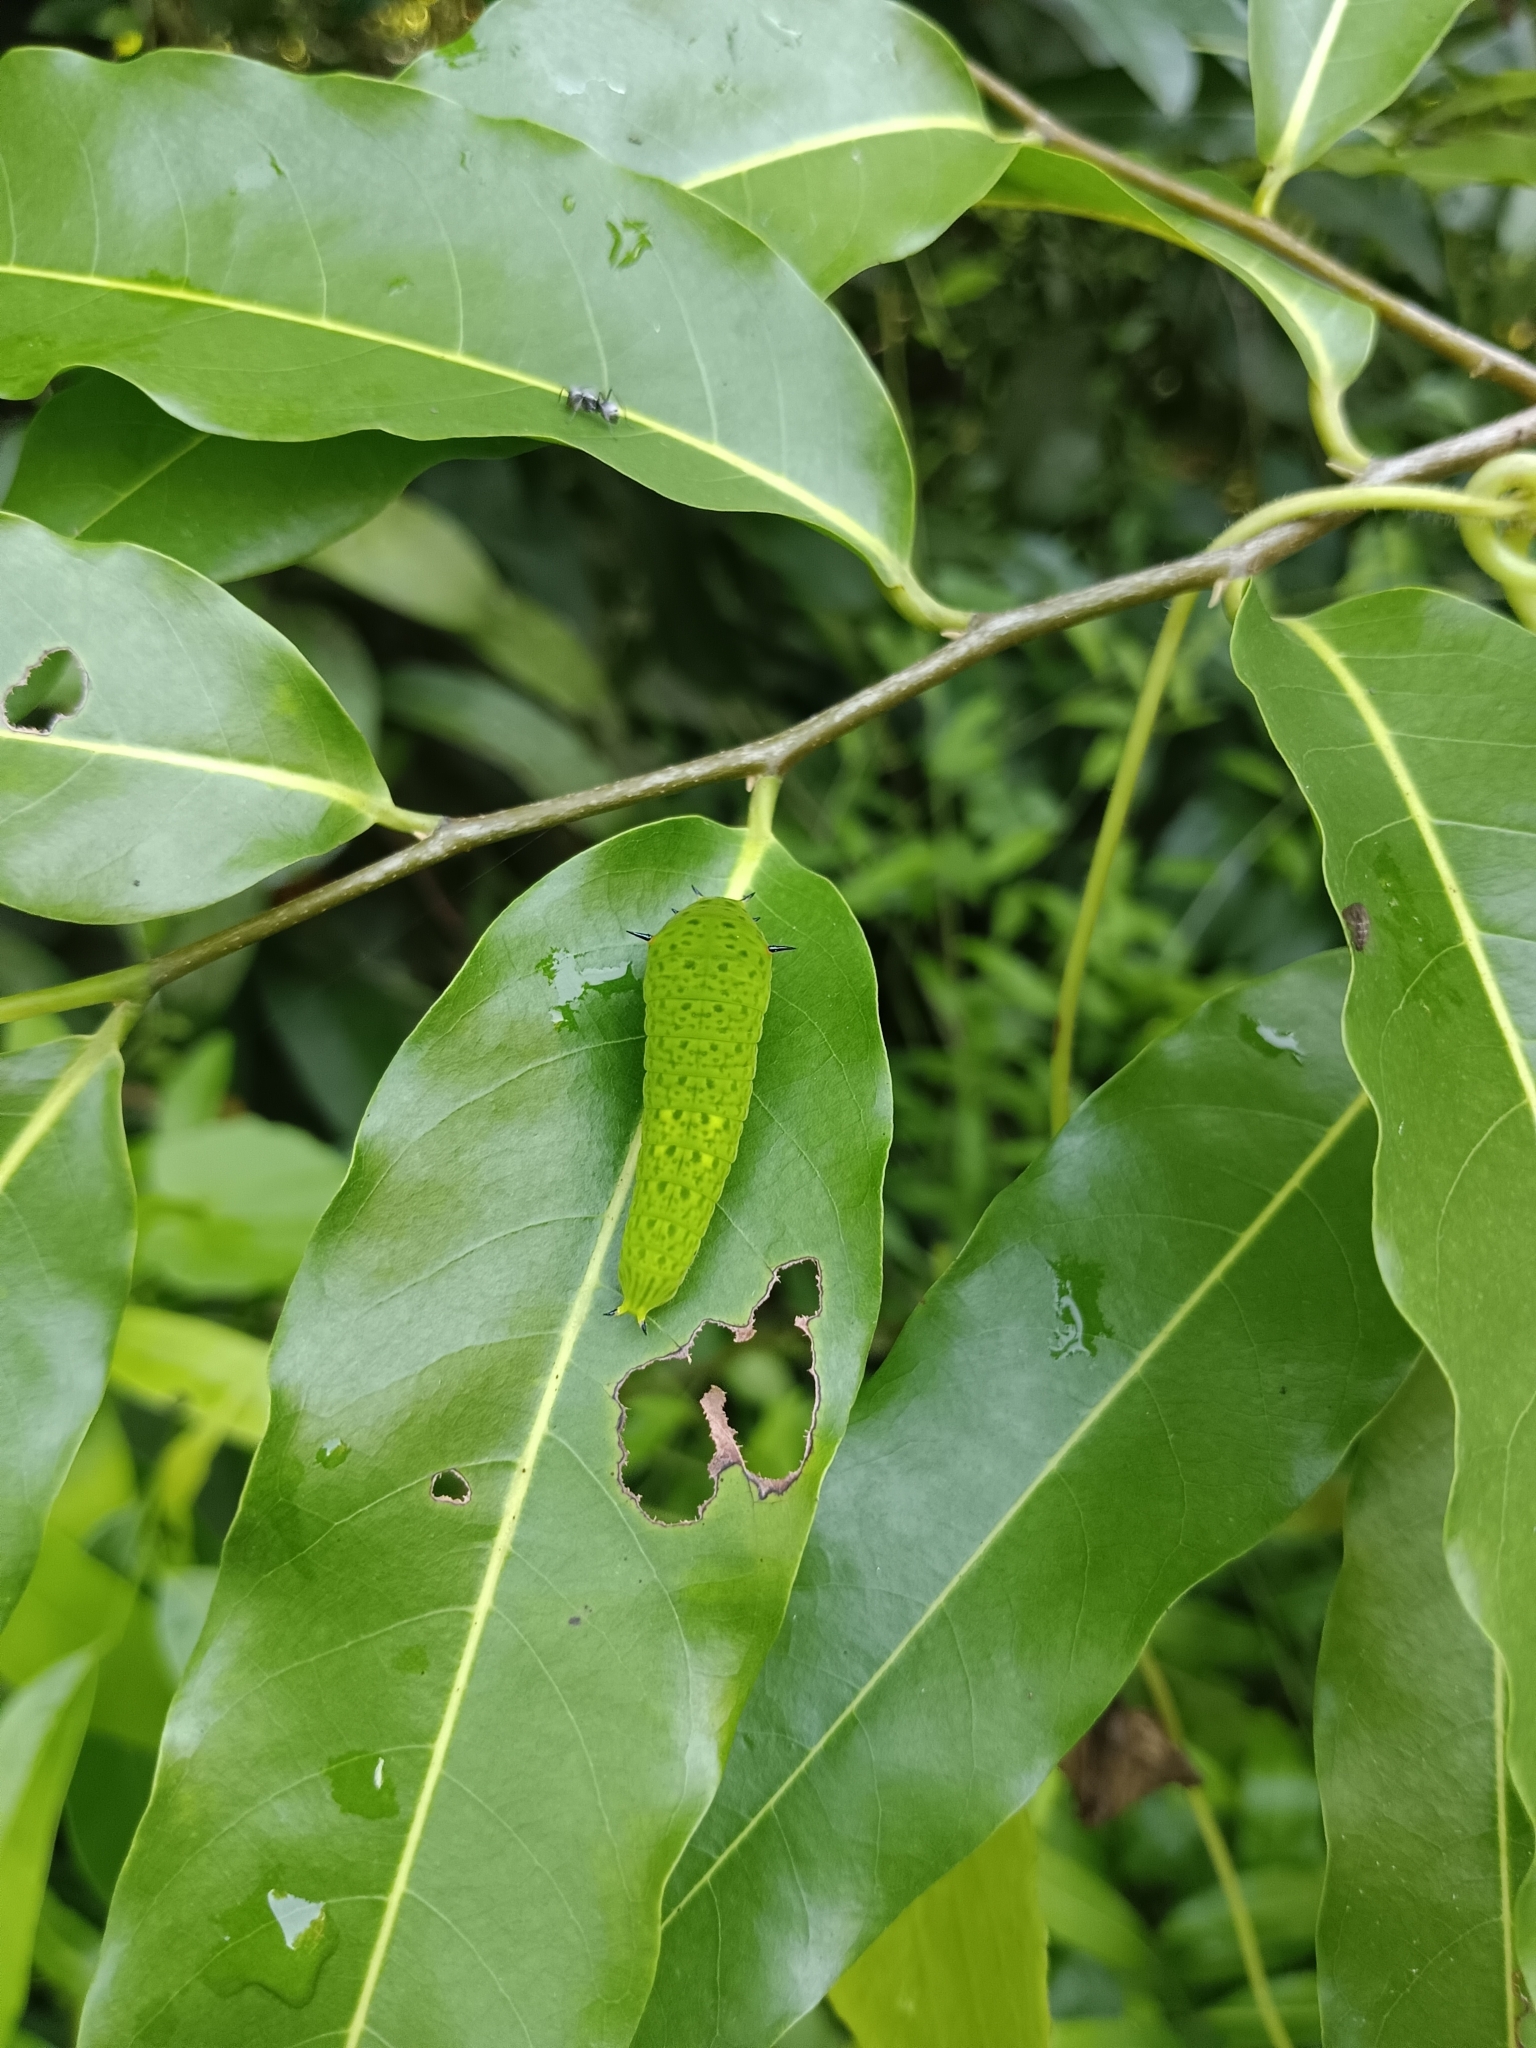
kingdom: Animalia
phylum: Arthropoda
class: Insecta
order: Lepidoptera
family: Papilionidae
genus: Graphium
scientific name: Graphium agamemnon
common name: Tailed jay
